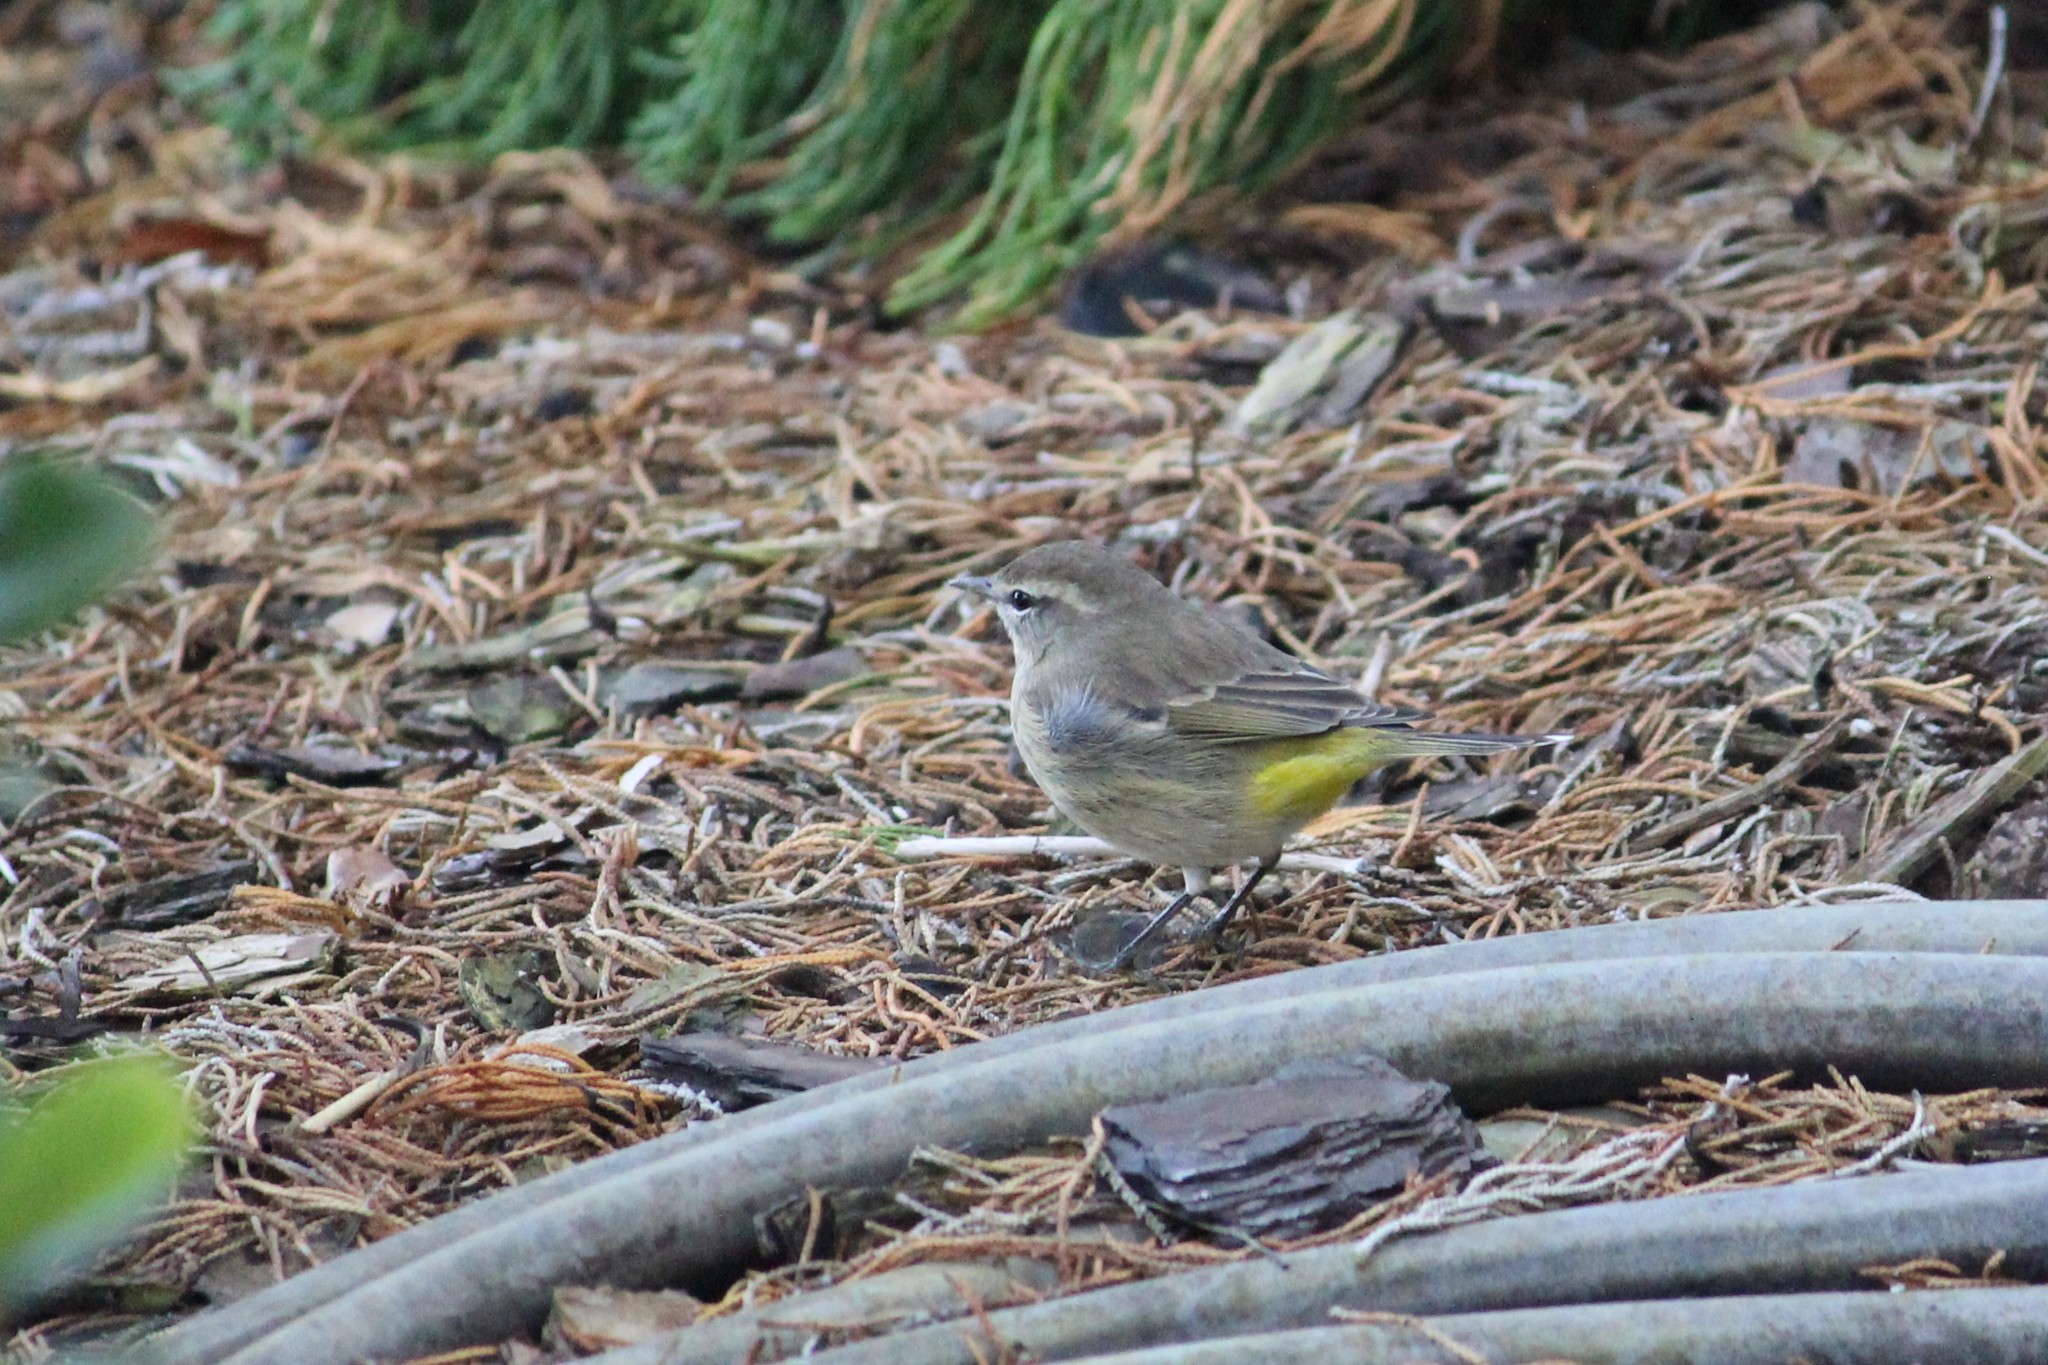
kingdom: Animalia
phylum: Chordata
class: Aves
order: Passeriformes
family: Parulidae
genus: Setophaga
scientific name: Setophaga palmarum
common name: Palm warbler
